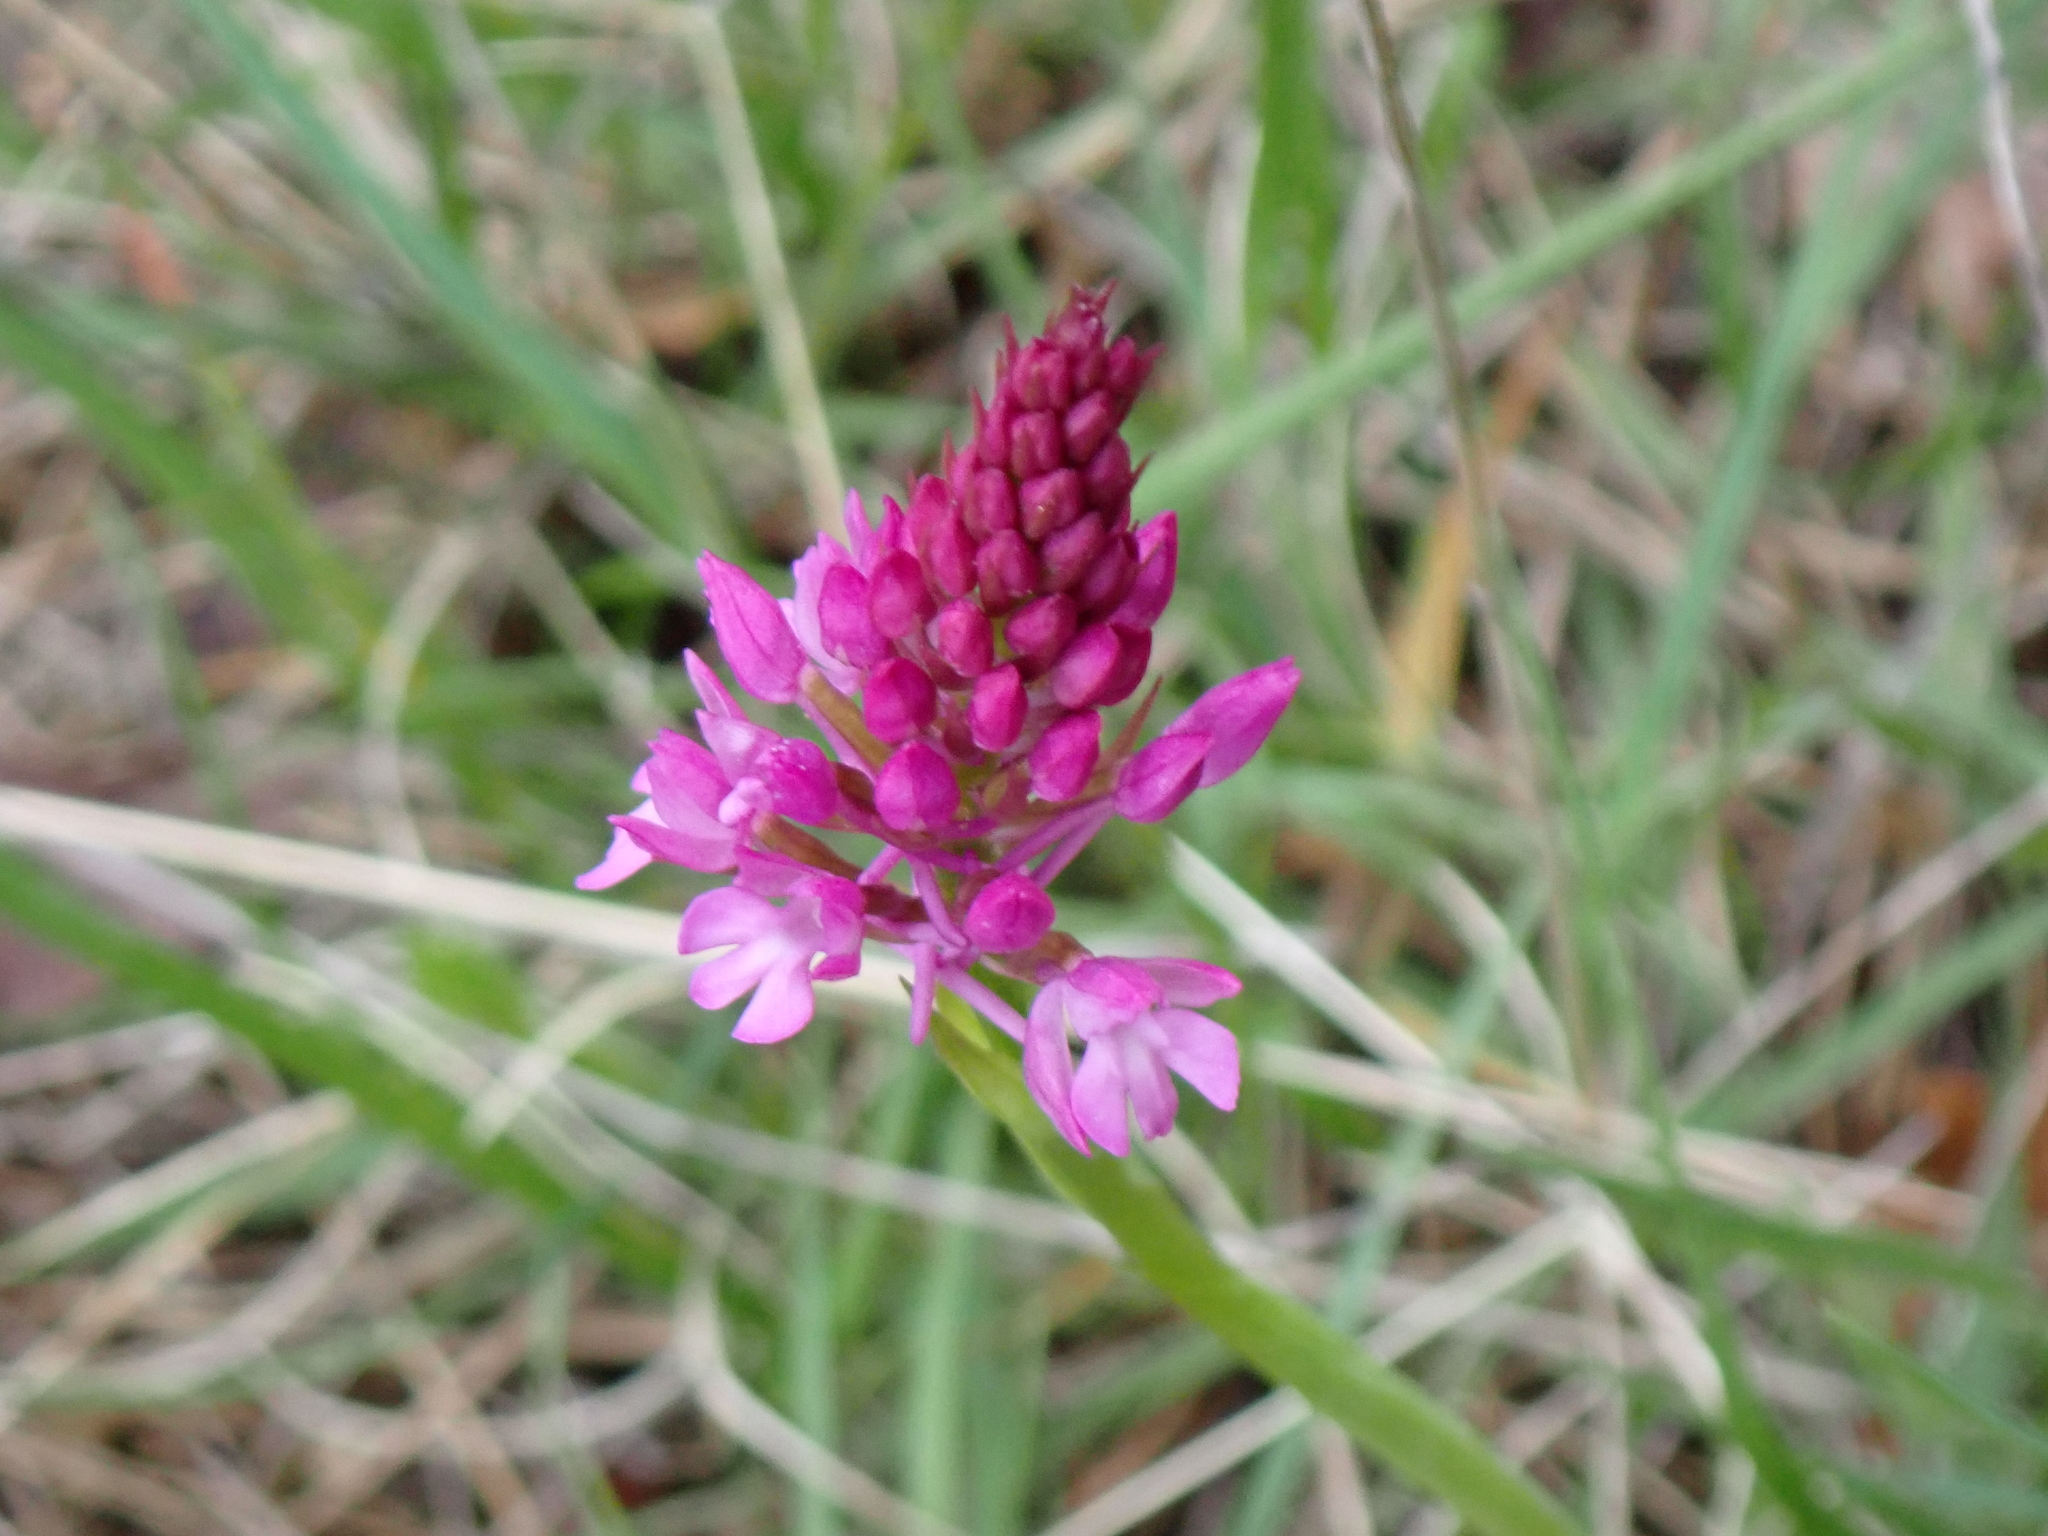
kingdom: Plantae
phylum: Tracheophyta
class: Liliopsida
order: Asparagales
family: Orchidaceae
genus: Anacamptis
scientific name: Anacamptis pyramidalis
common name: Pyramidal orchid
